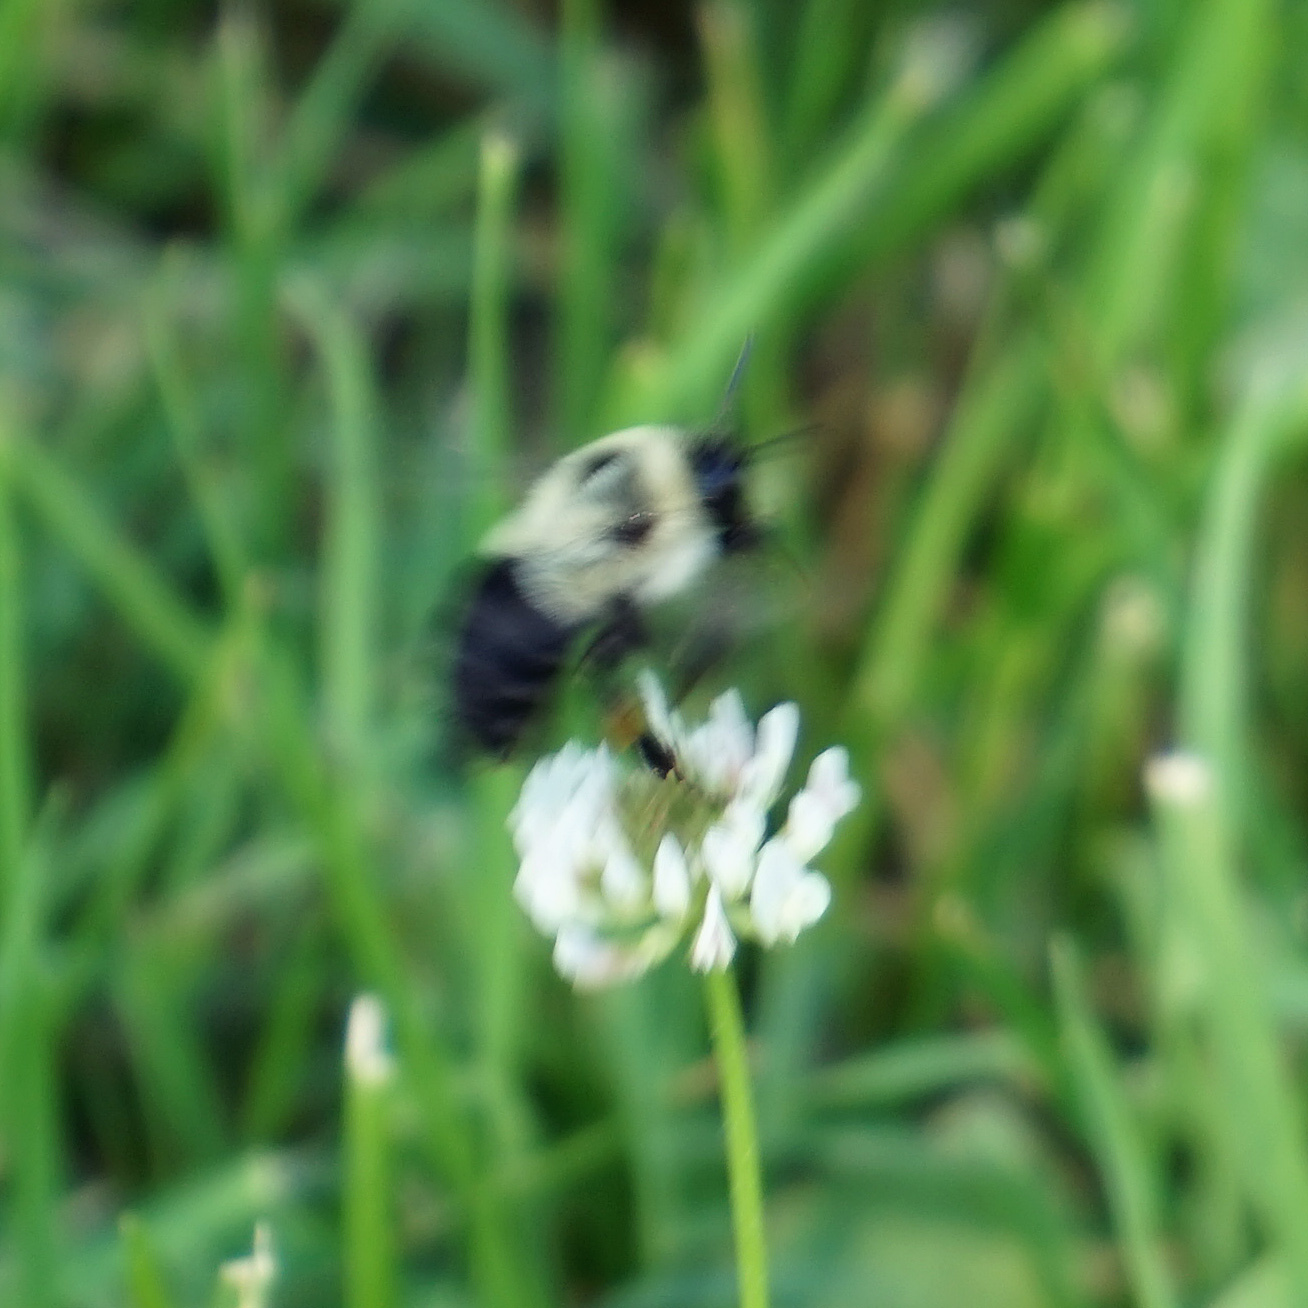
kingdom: Animalia
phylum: Arthropoda
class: Insecta
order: Hymenoptera
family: Apidae
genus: Bombus
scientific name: Bombus impatiens
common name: Common eastern bumble bee
